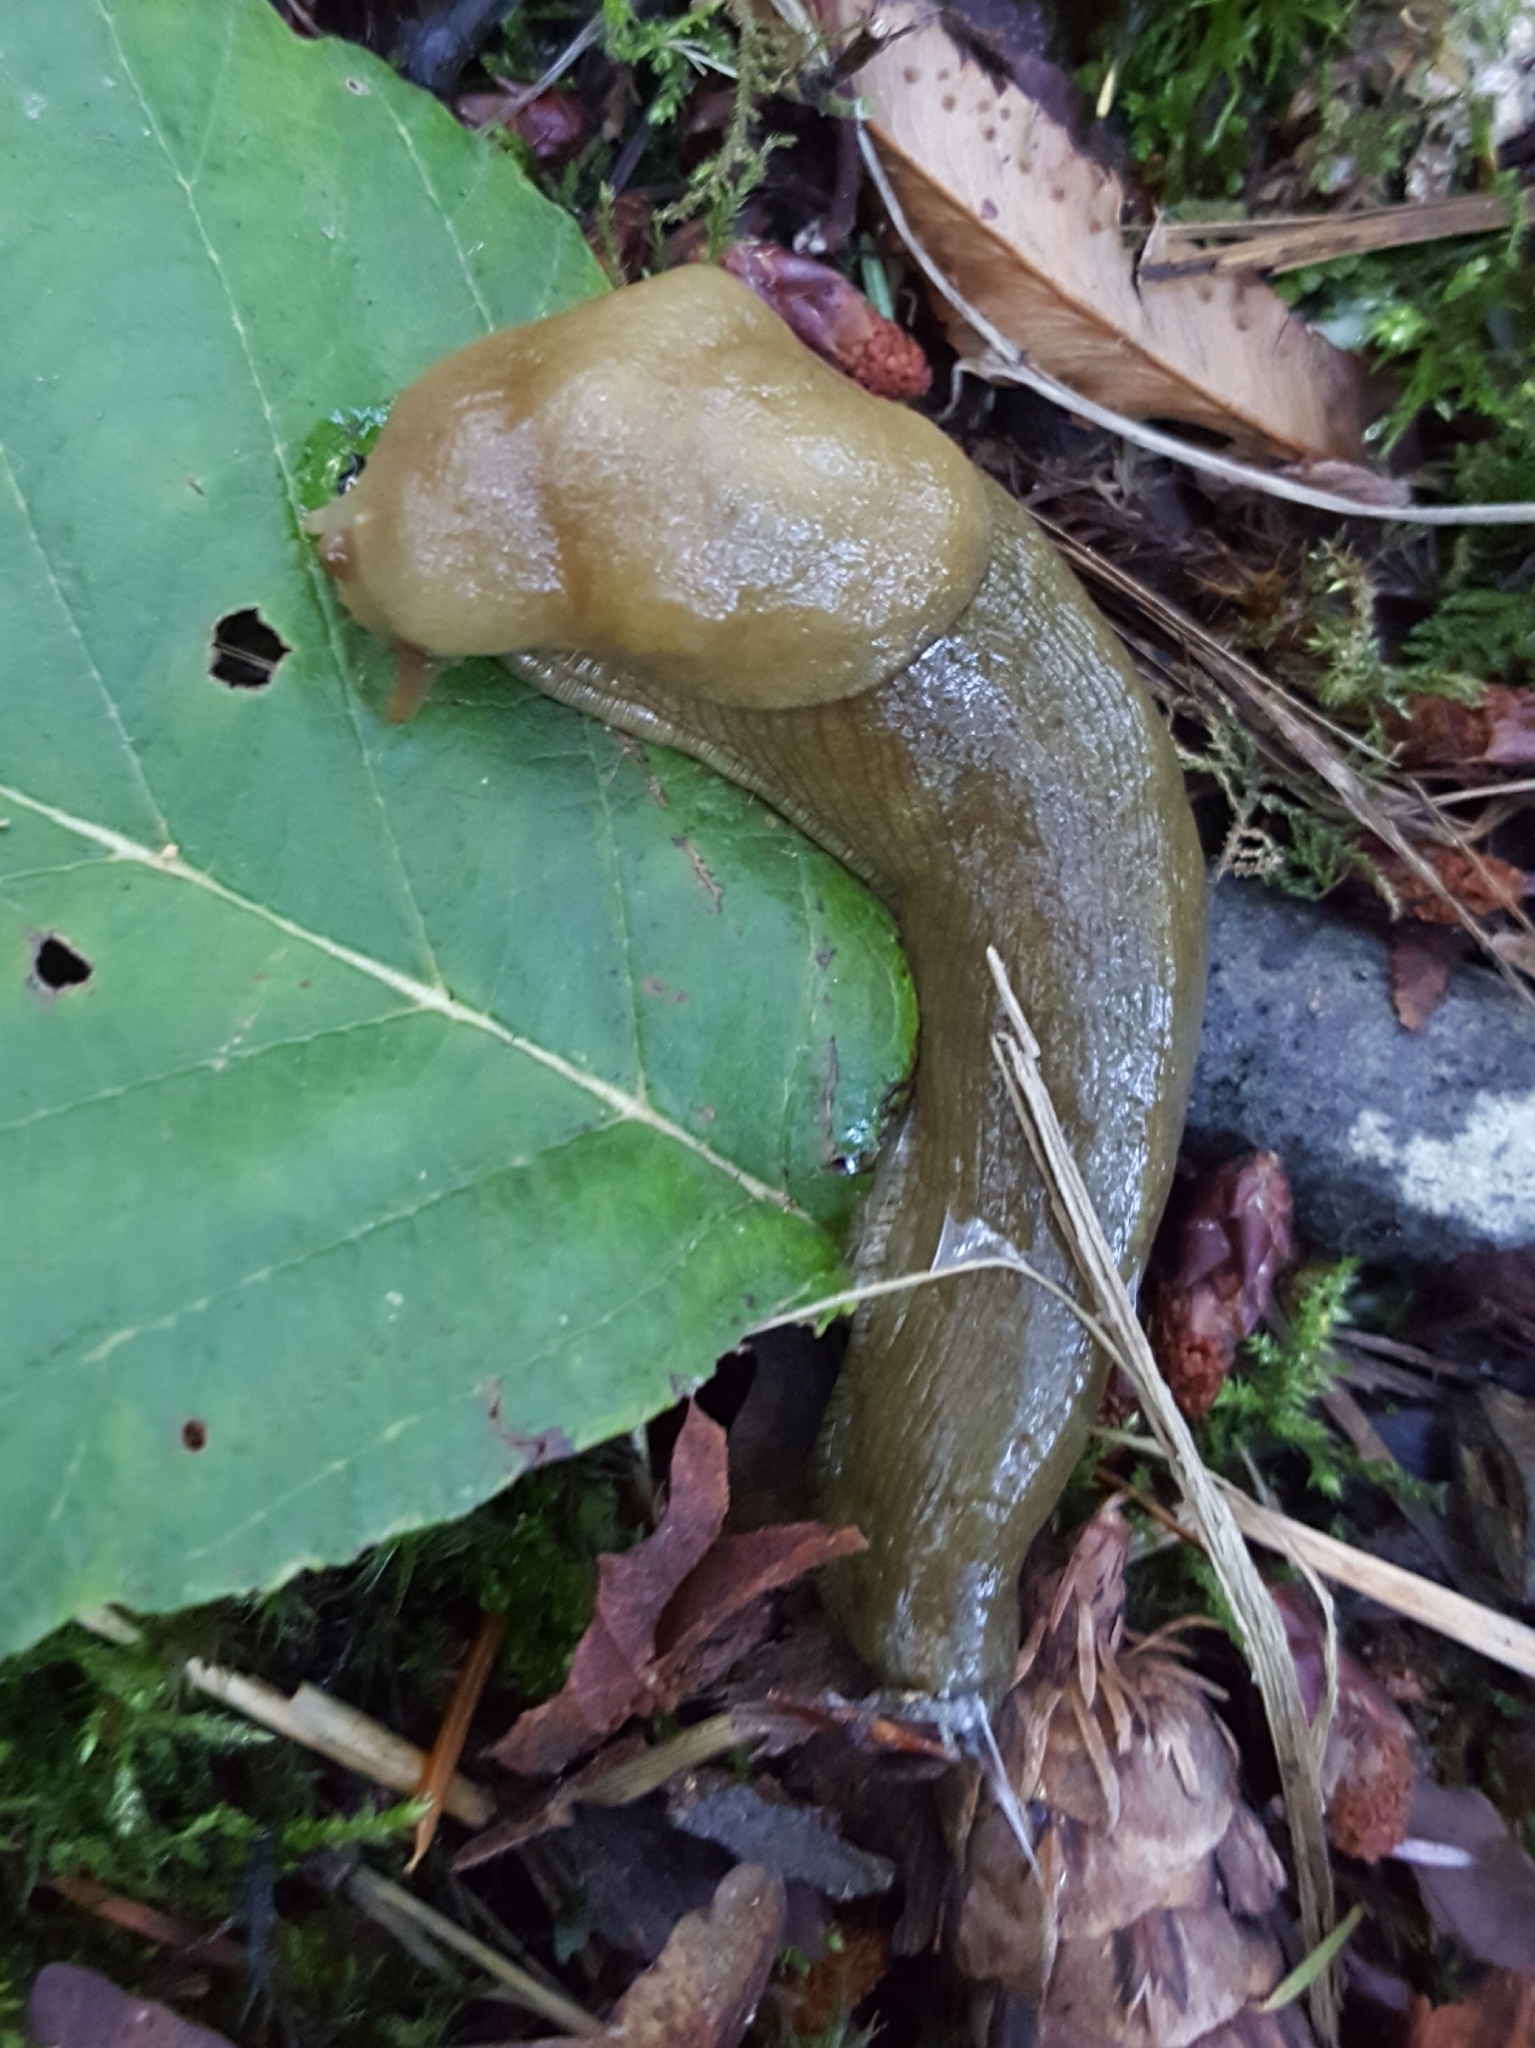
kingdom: Animalia
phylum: Mollusca
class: Gastropoda
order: Stylommatophora
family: Ariolimacidae
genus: Ariolimax
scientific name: Ariolimax columbianus
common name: Pacific banana slug
